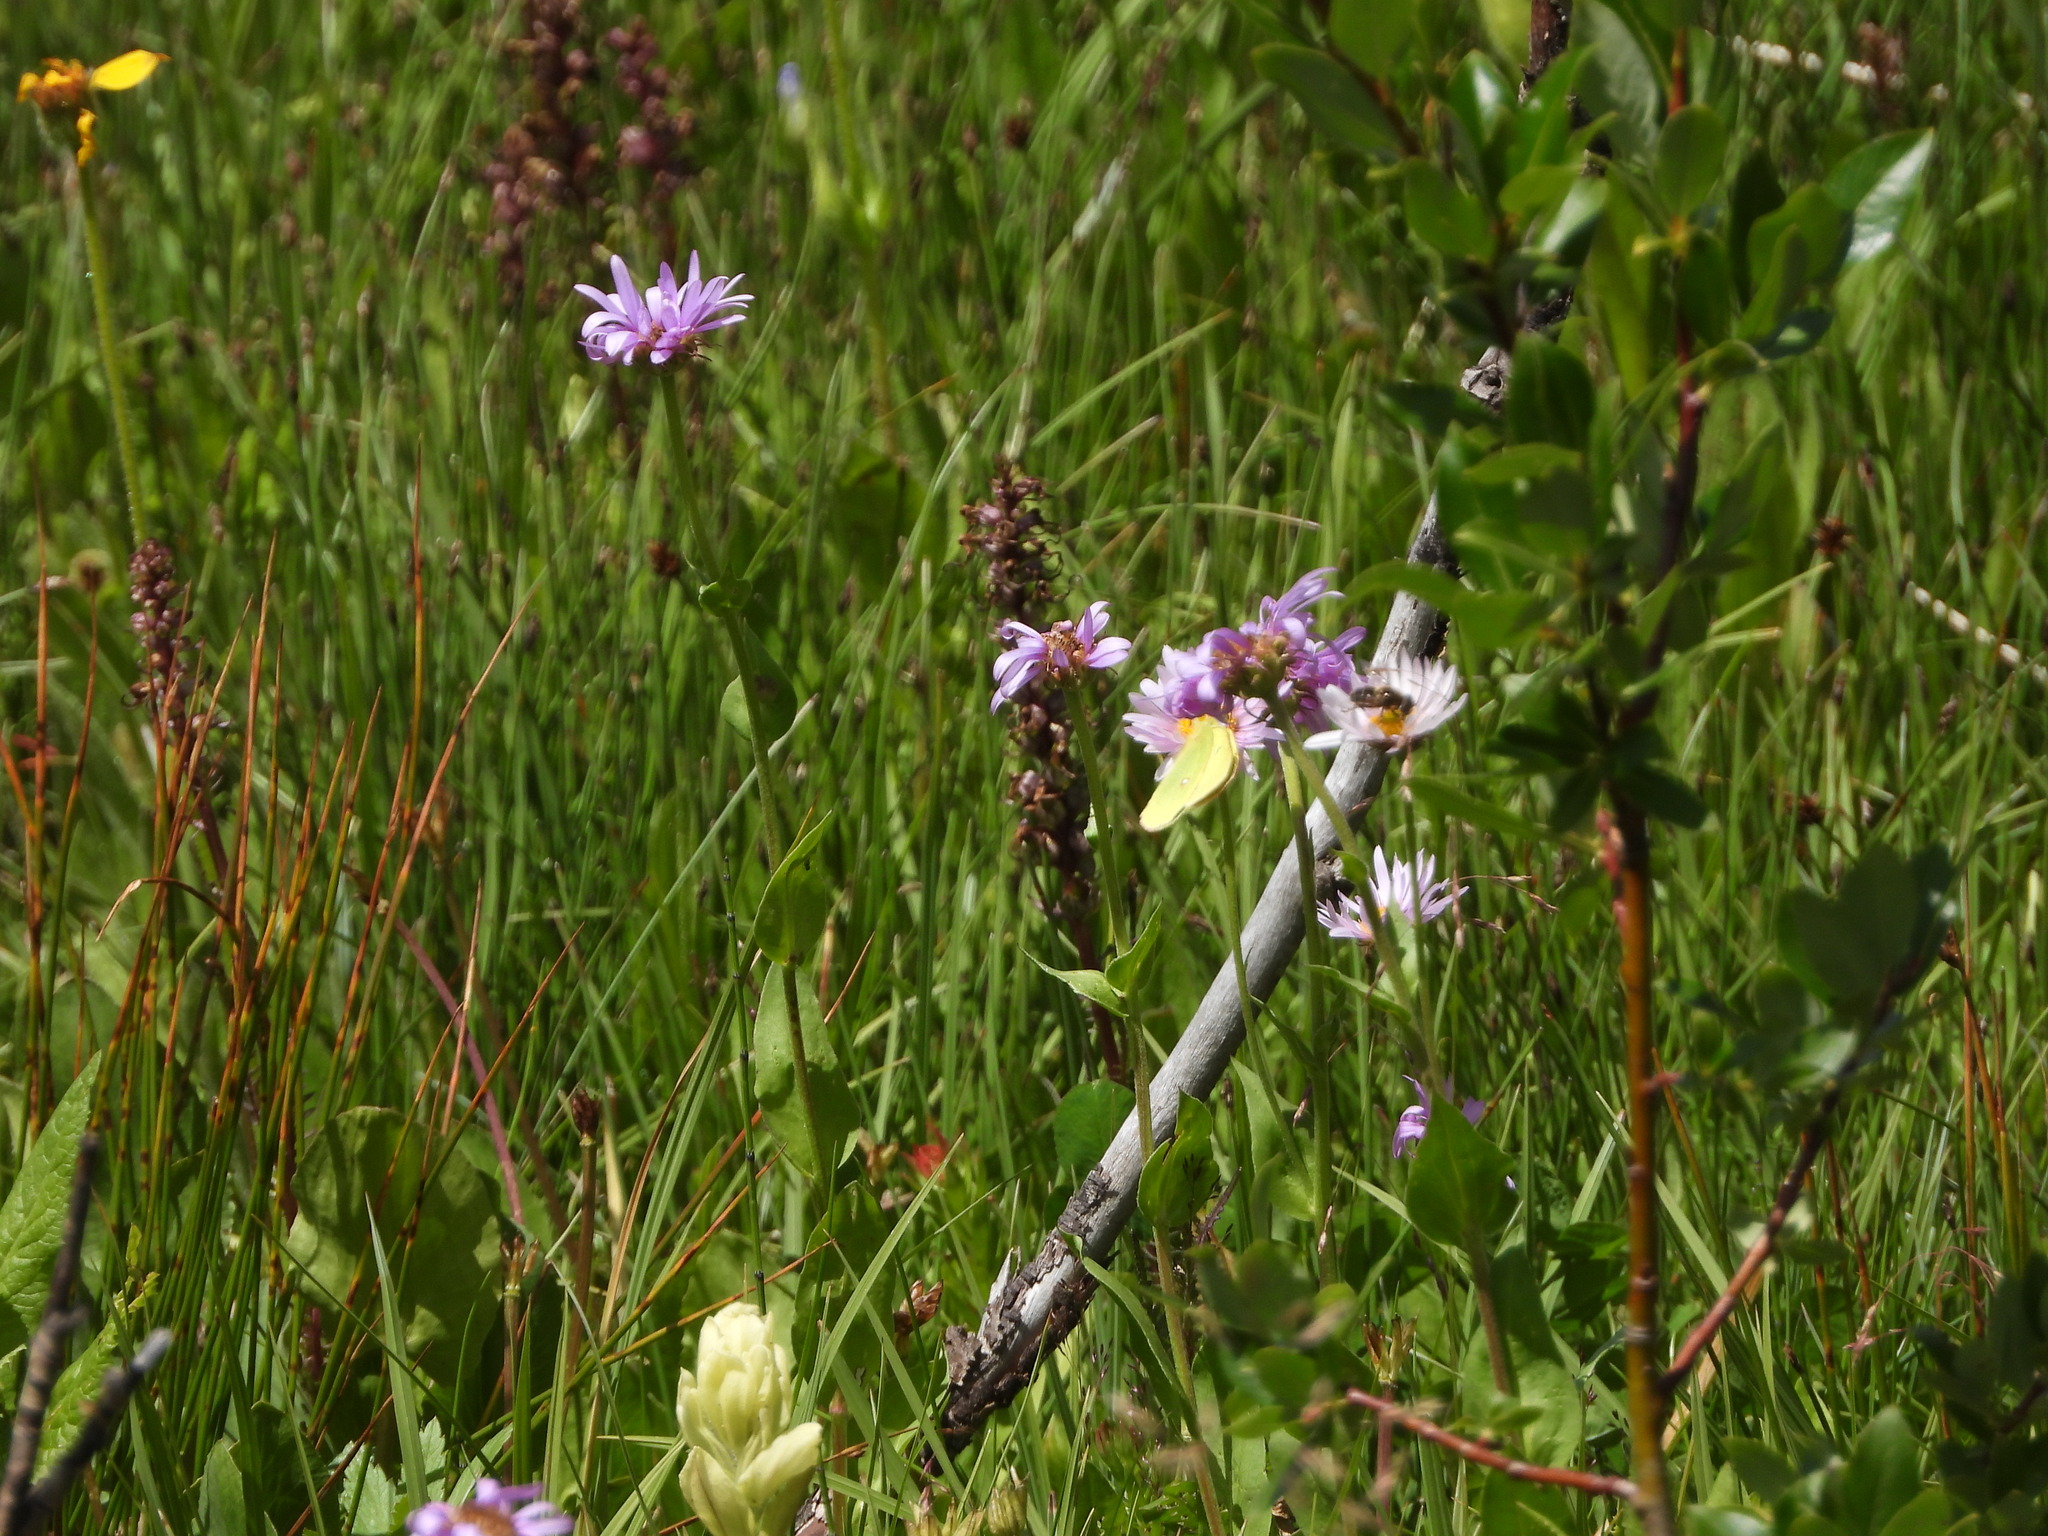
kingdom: Plantae
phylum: Tracheophyta
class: Magnoliopsida
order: Lamiales
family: Orobanchaceae
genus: Pedicularis
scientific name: Pedicularis groenlandica
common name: Elephant's-head
